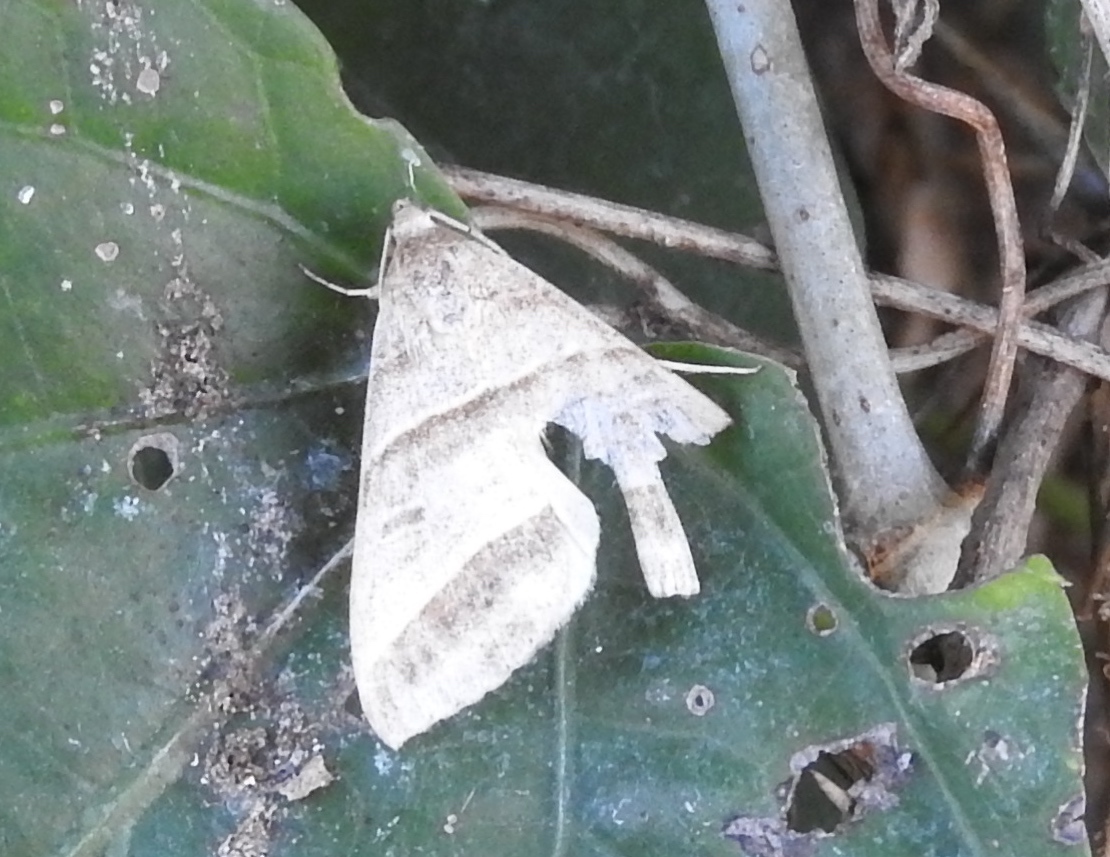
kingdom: Animalia
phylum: Arthropoda
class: Insecta
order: Lepidoptera
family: Erebidae
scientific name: Erebidae
